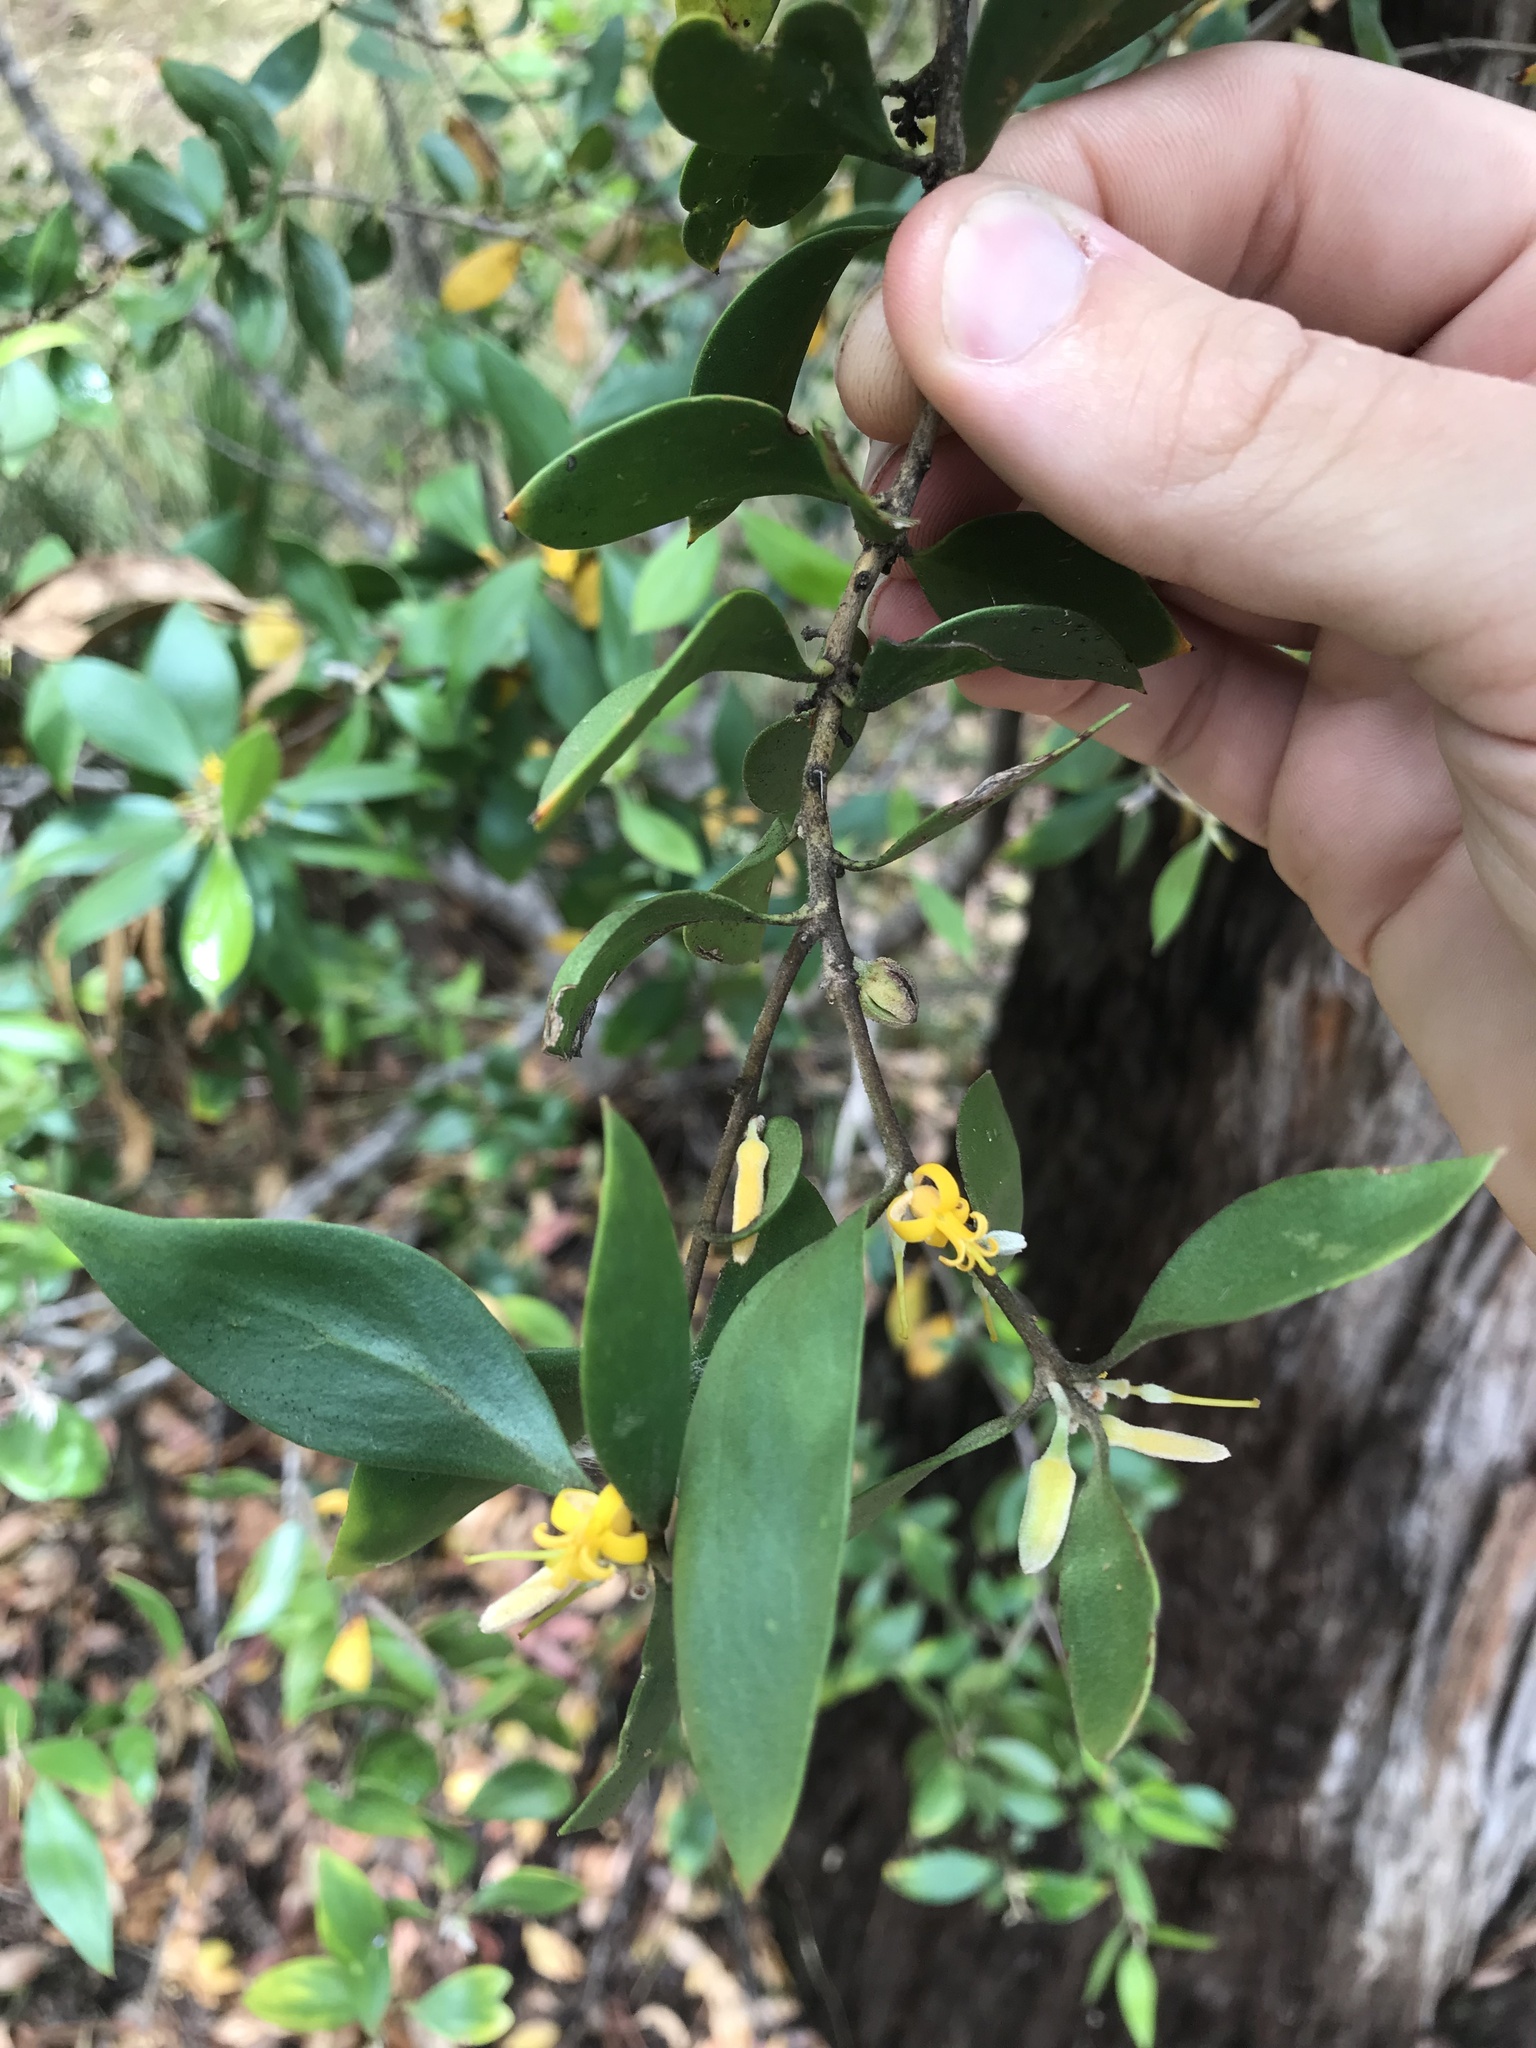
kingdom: Plantae
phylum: Tracheophyta
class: Magnoliopsida
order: Proteales
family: Proteaceae
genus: Persoonia
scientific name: Persoonia cornifolia
